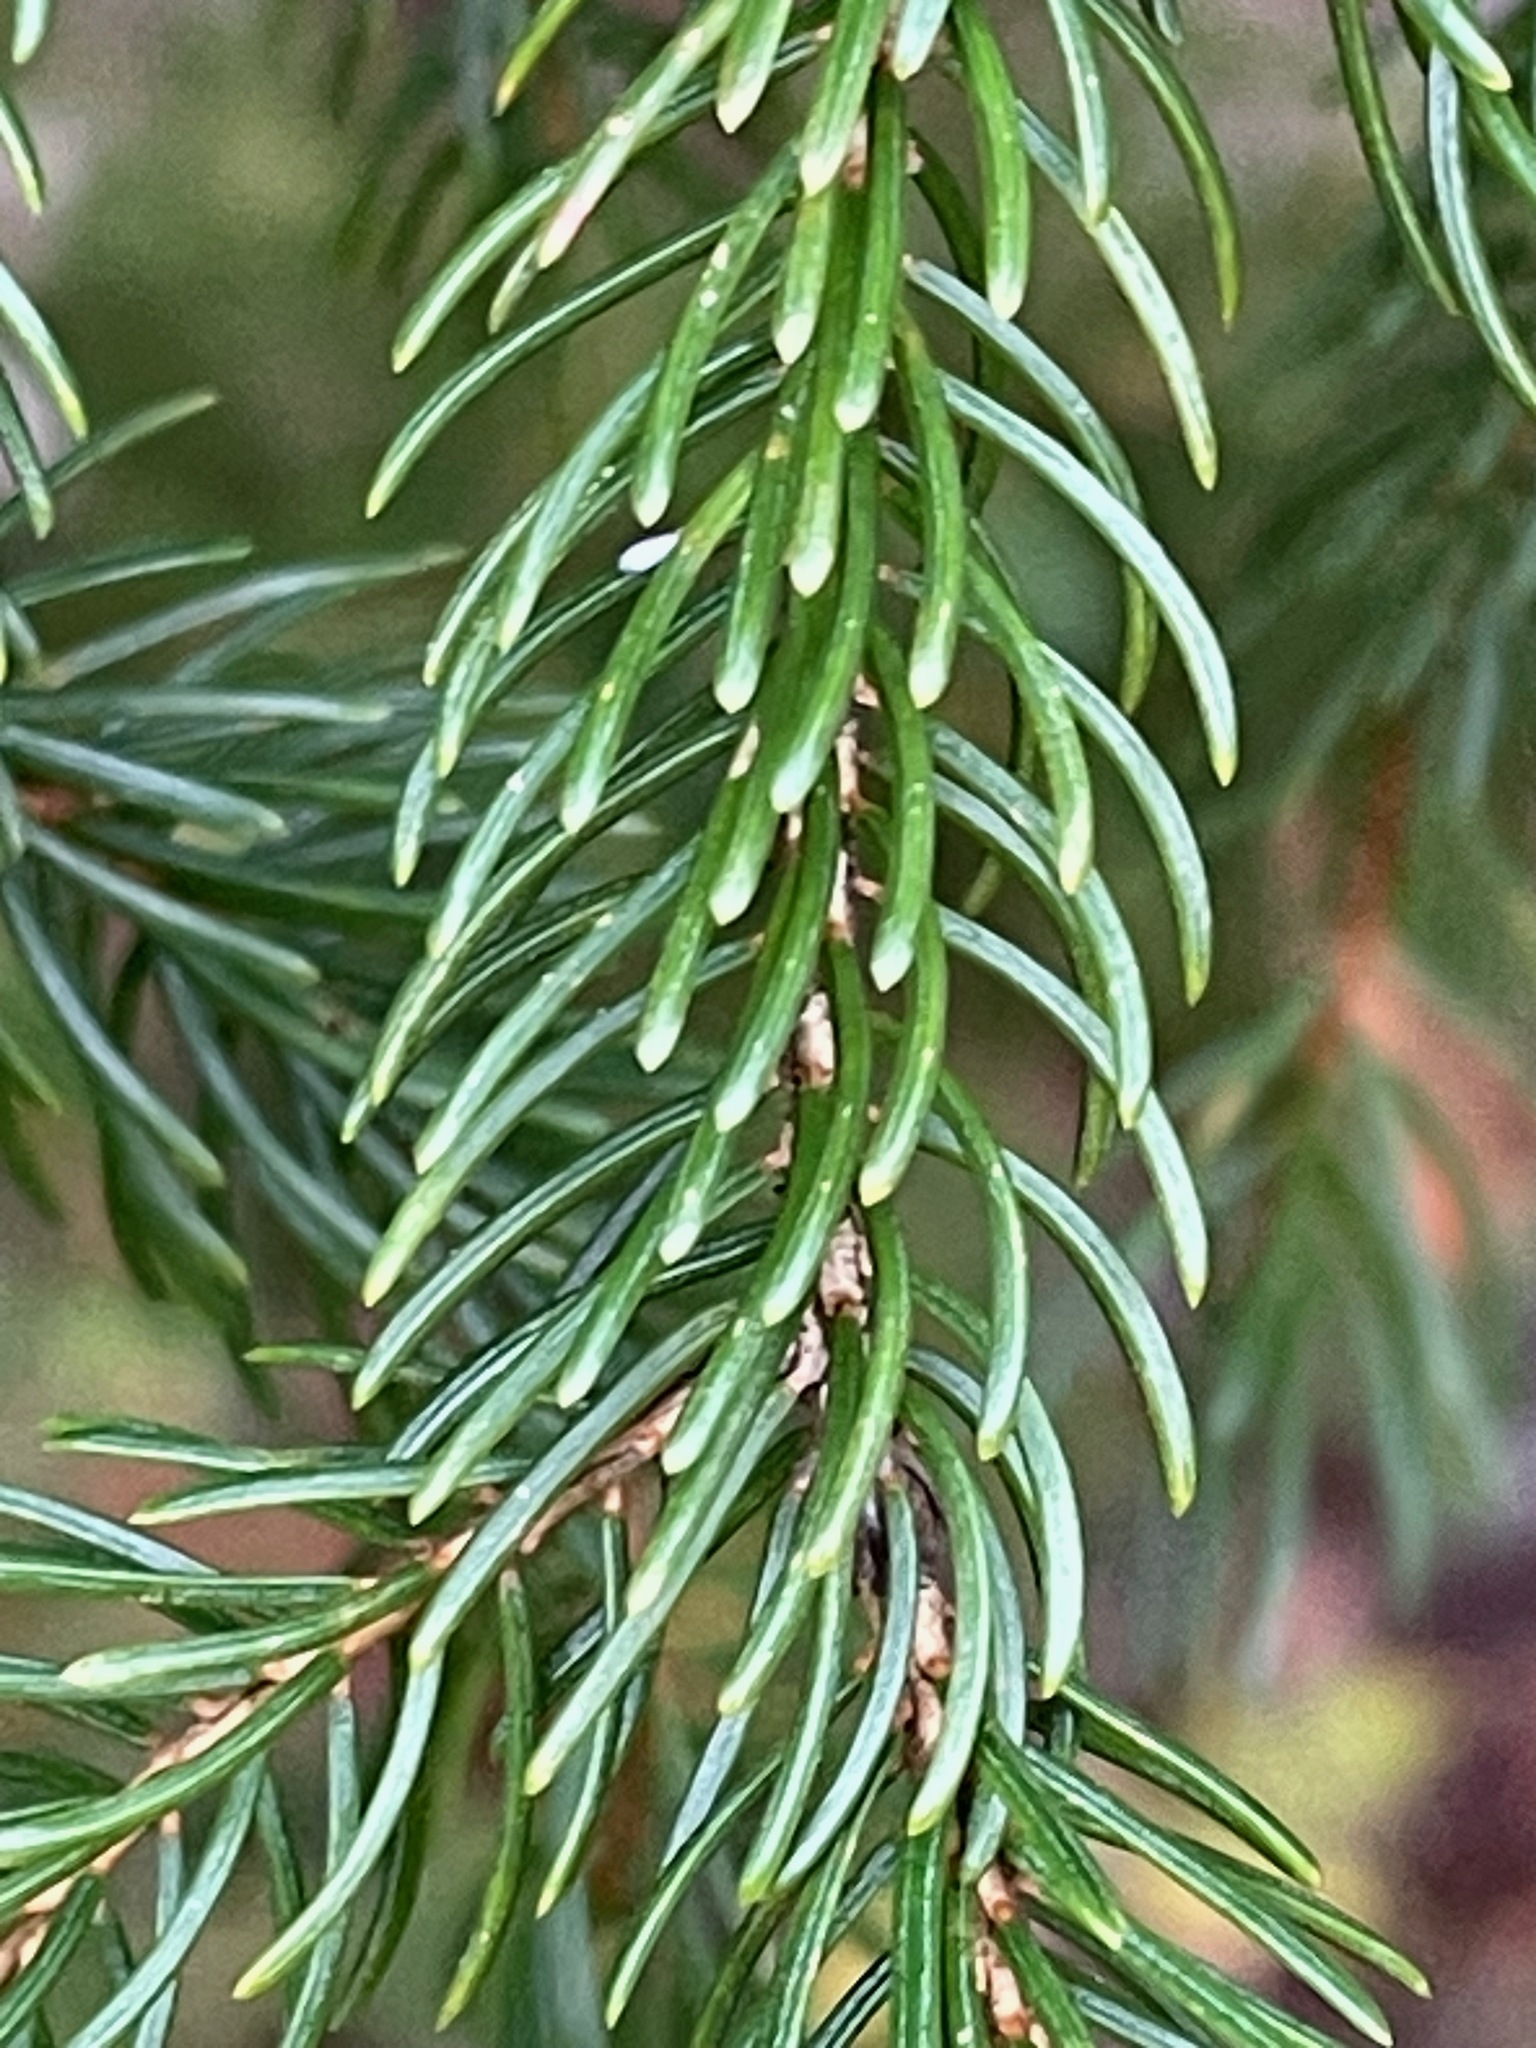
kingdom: Plantae
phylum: Tracheophyta
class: Pinopsida
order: Pinales
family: Pinaceae
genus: Picea
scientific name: Picea rubens
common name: Red spruce
